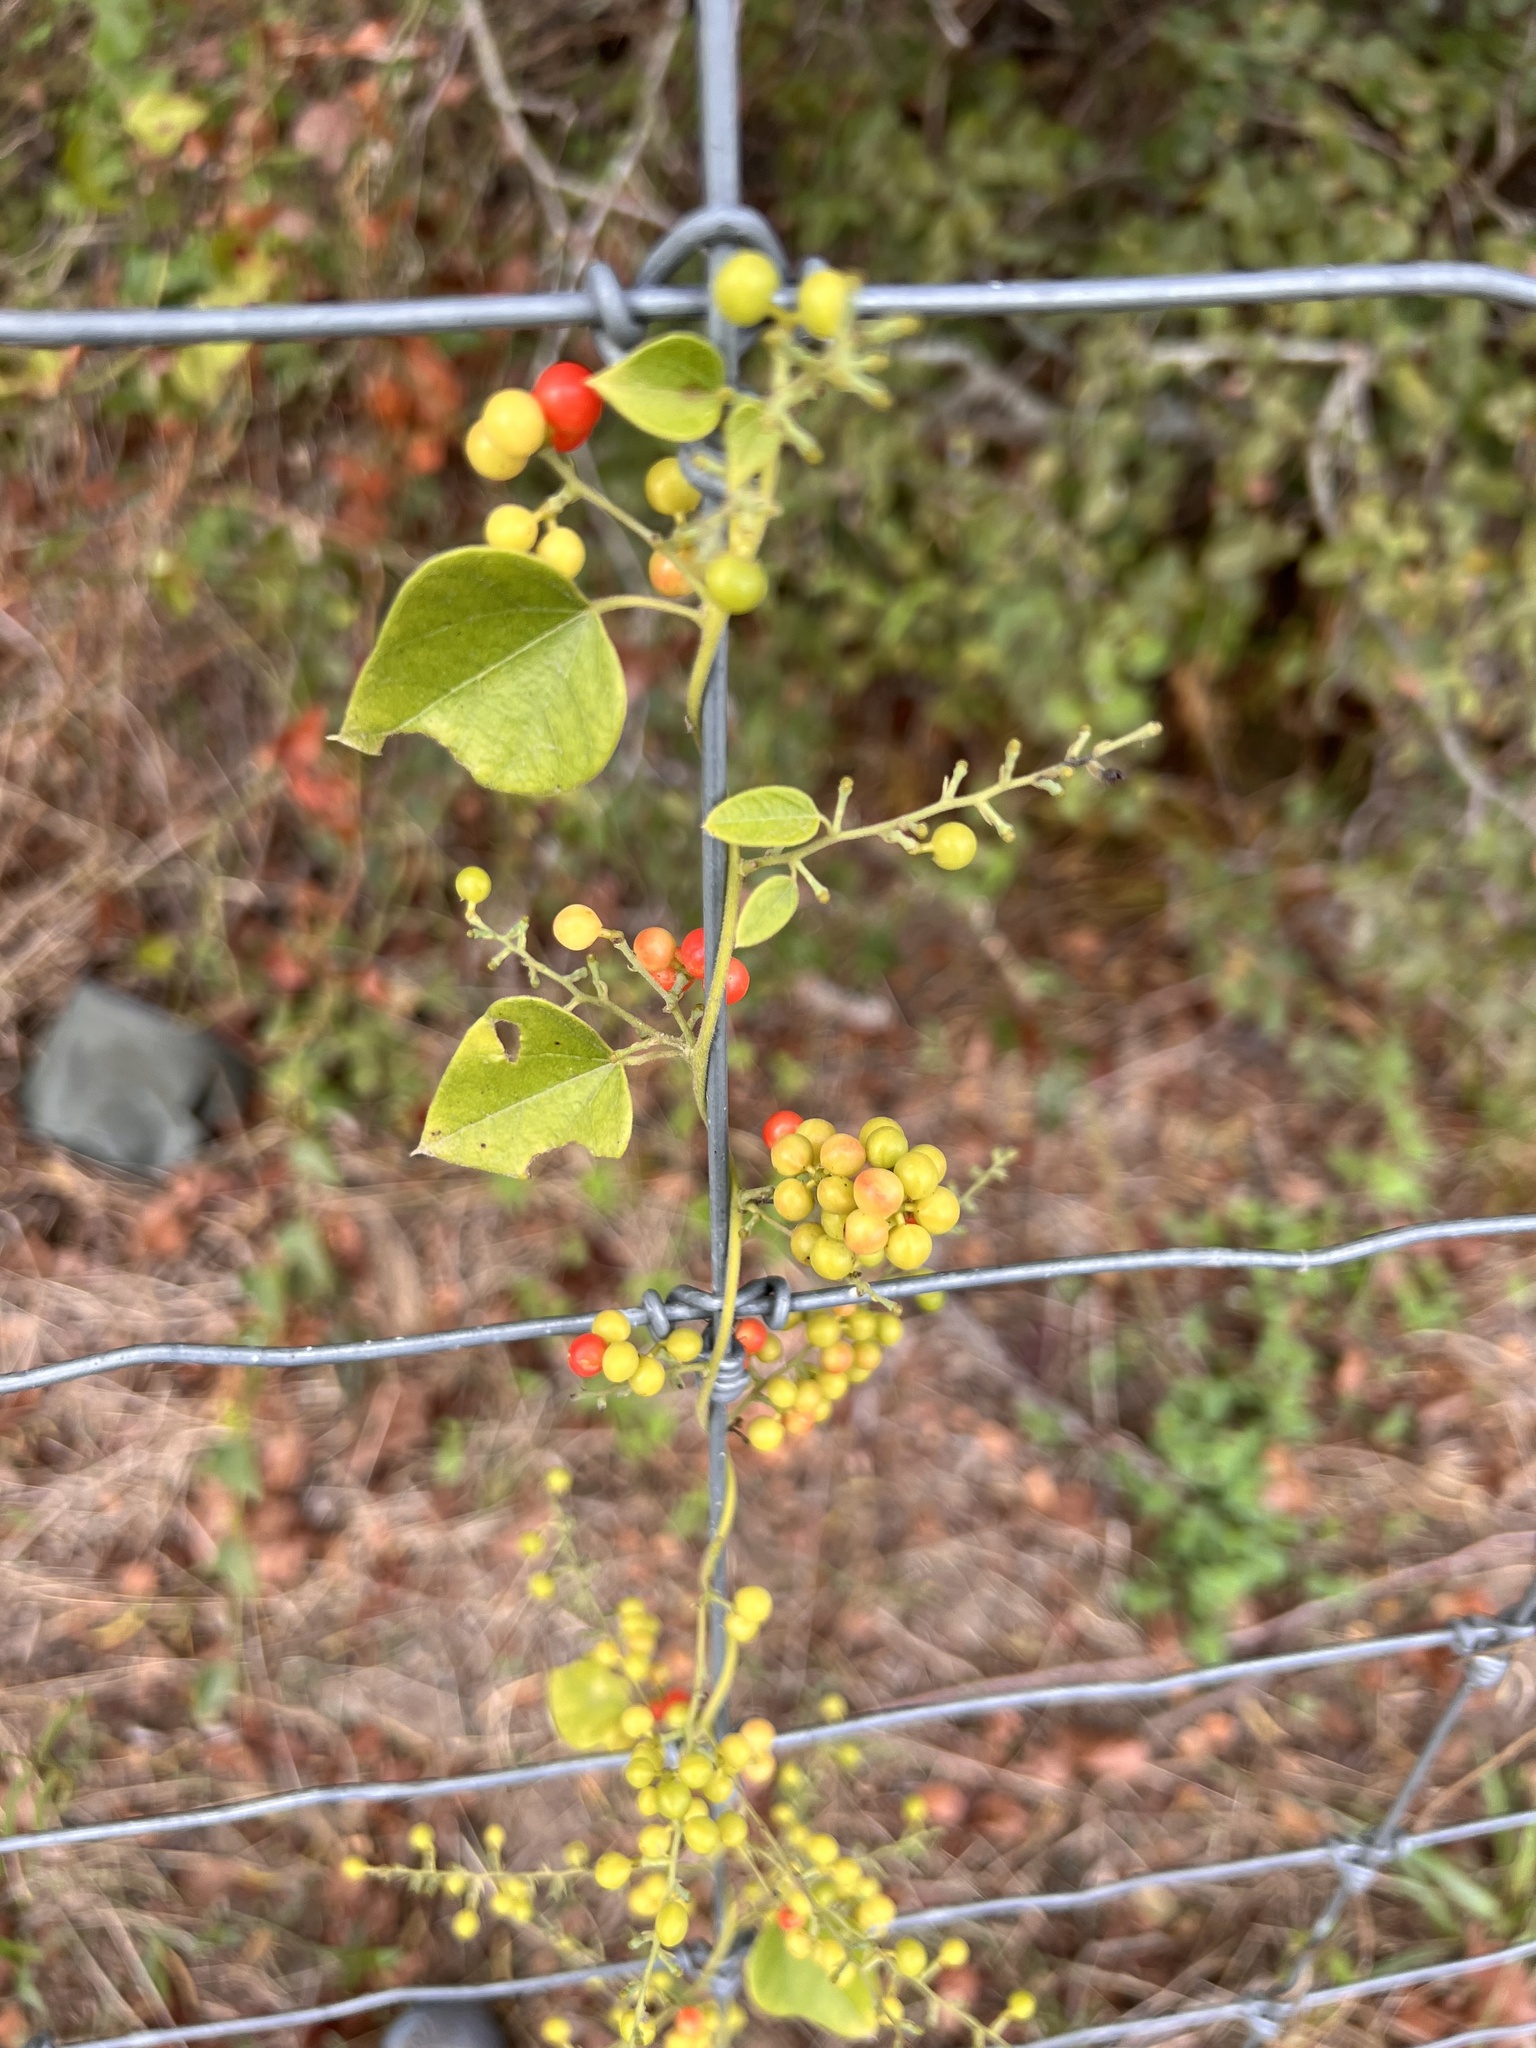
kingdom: Plantae
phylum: Tracheophyta
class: Magnoliopsida
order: Ranunculales
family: Menispermaceae
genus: Cocculus
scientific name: Cocculus carolinus
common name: Carolina moonseed
